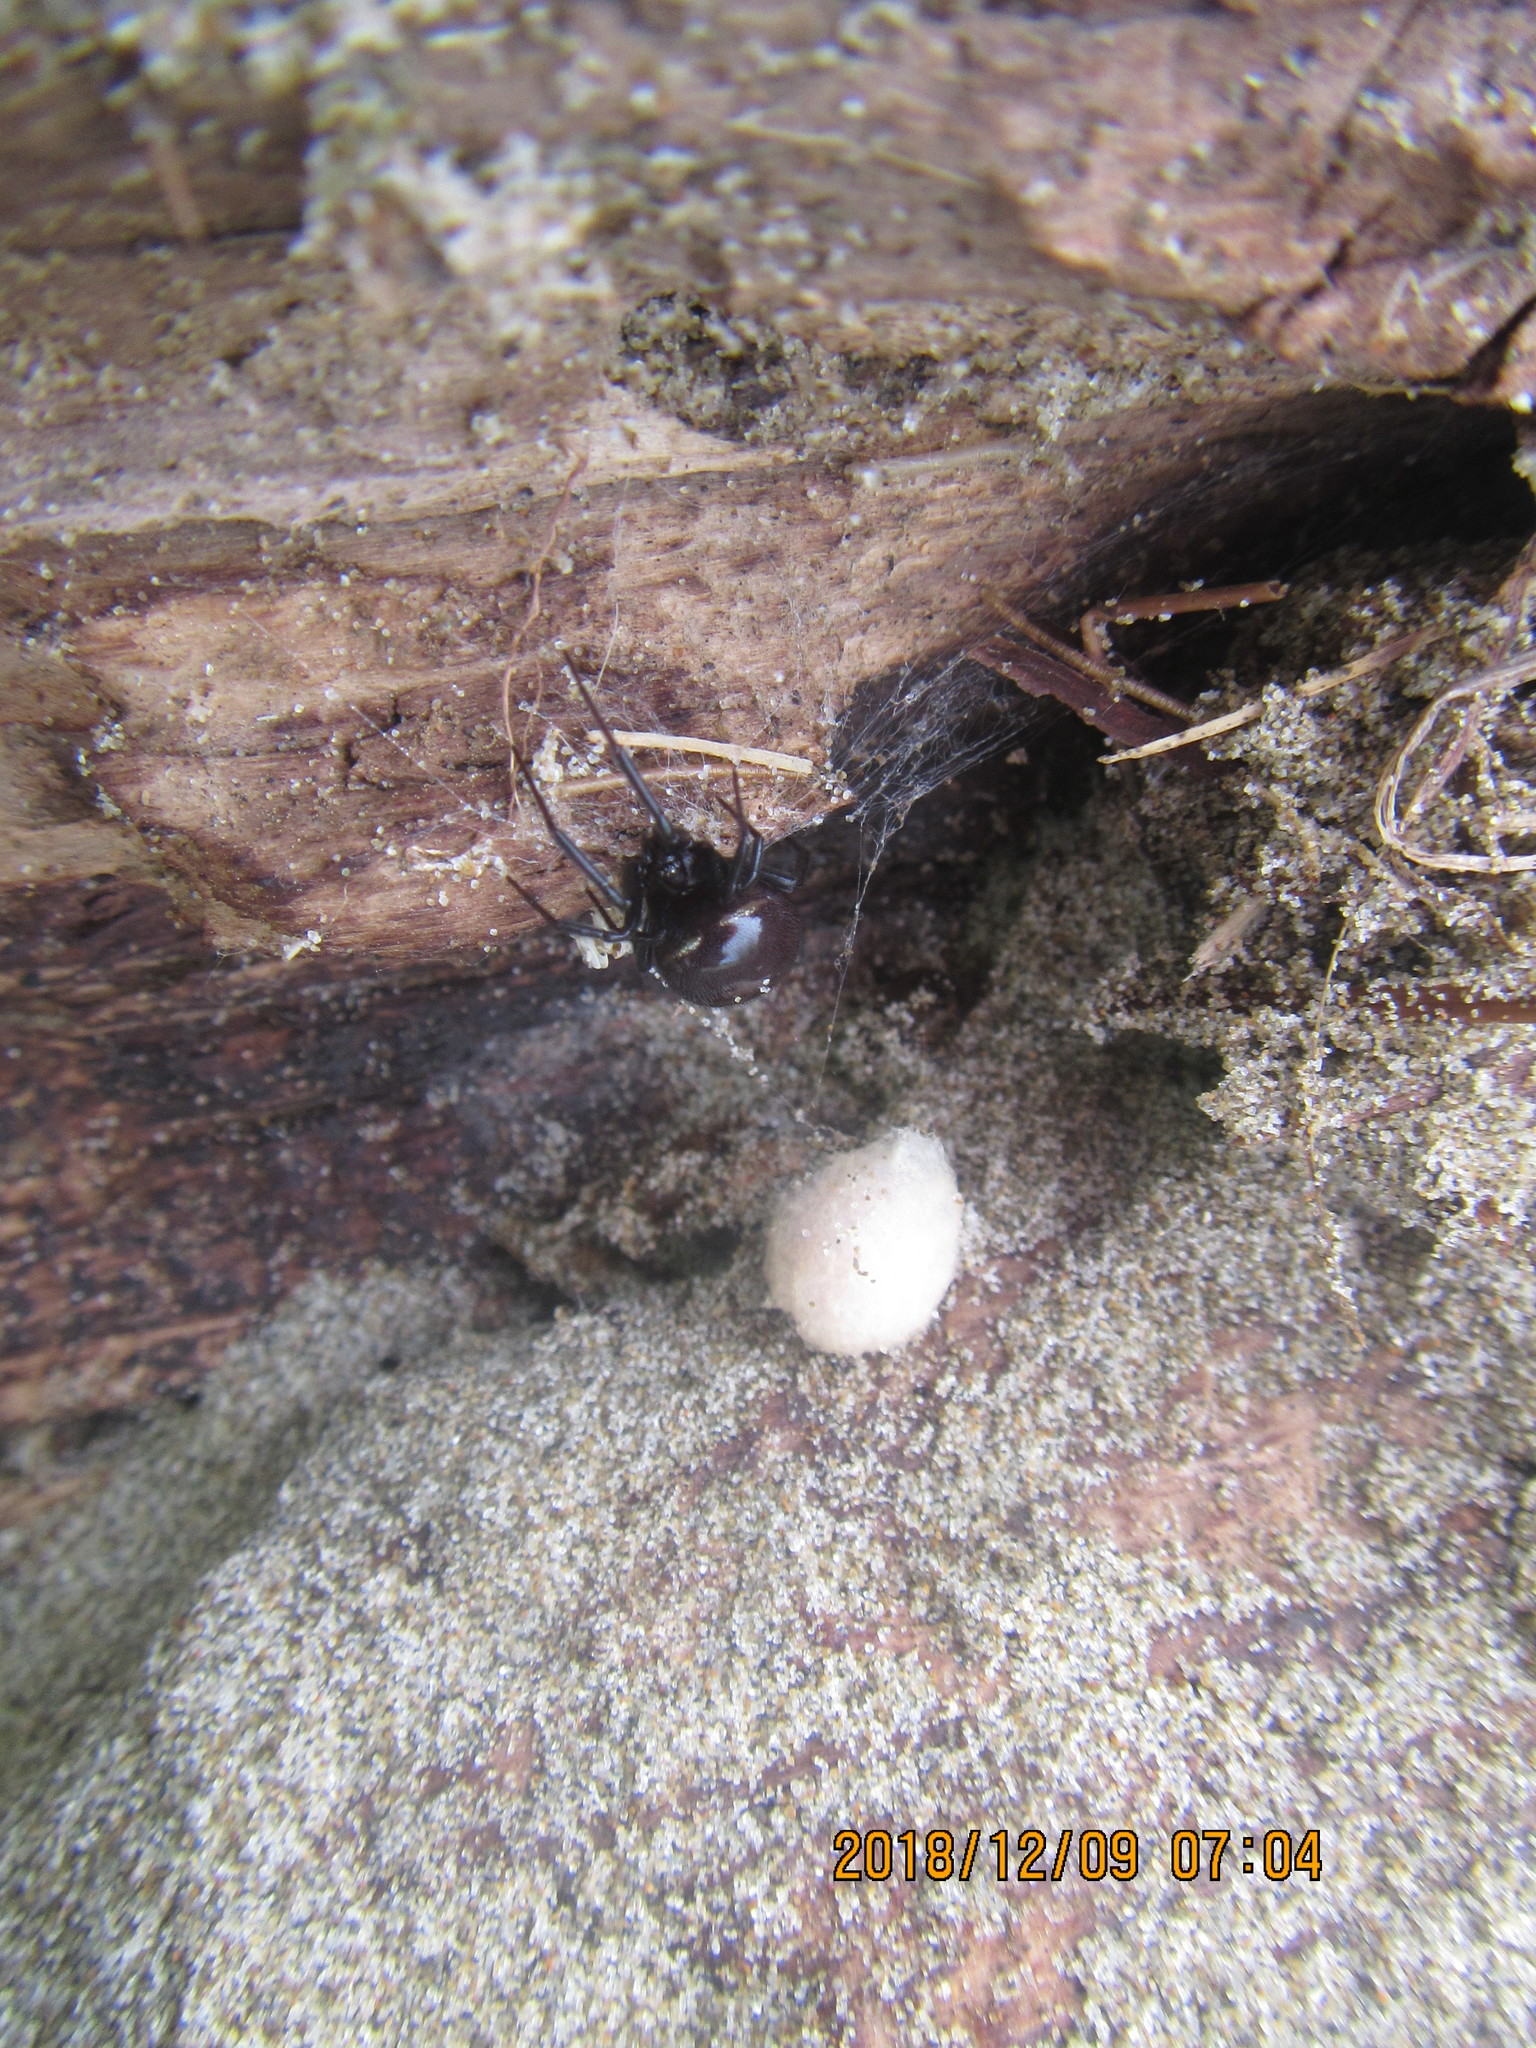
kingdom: Animalia
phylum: Arthropoda
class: Arachnida
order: Araneae
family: Theridiidae
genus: Steatoda
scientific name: Steatoda capensis
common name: Cobweb weaver
